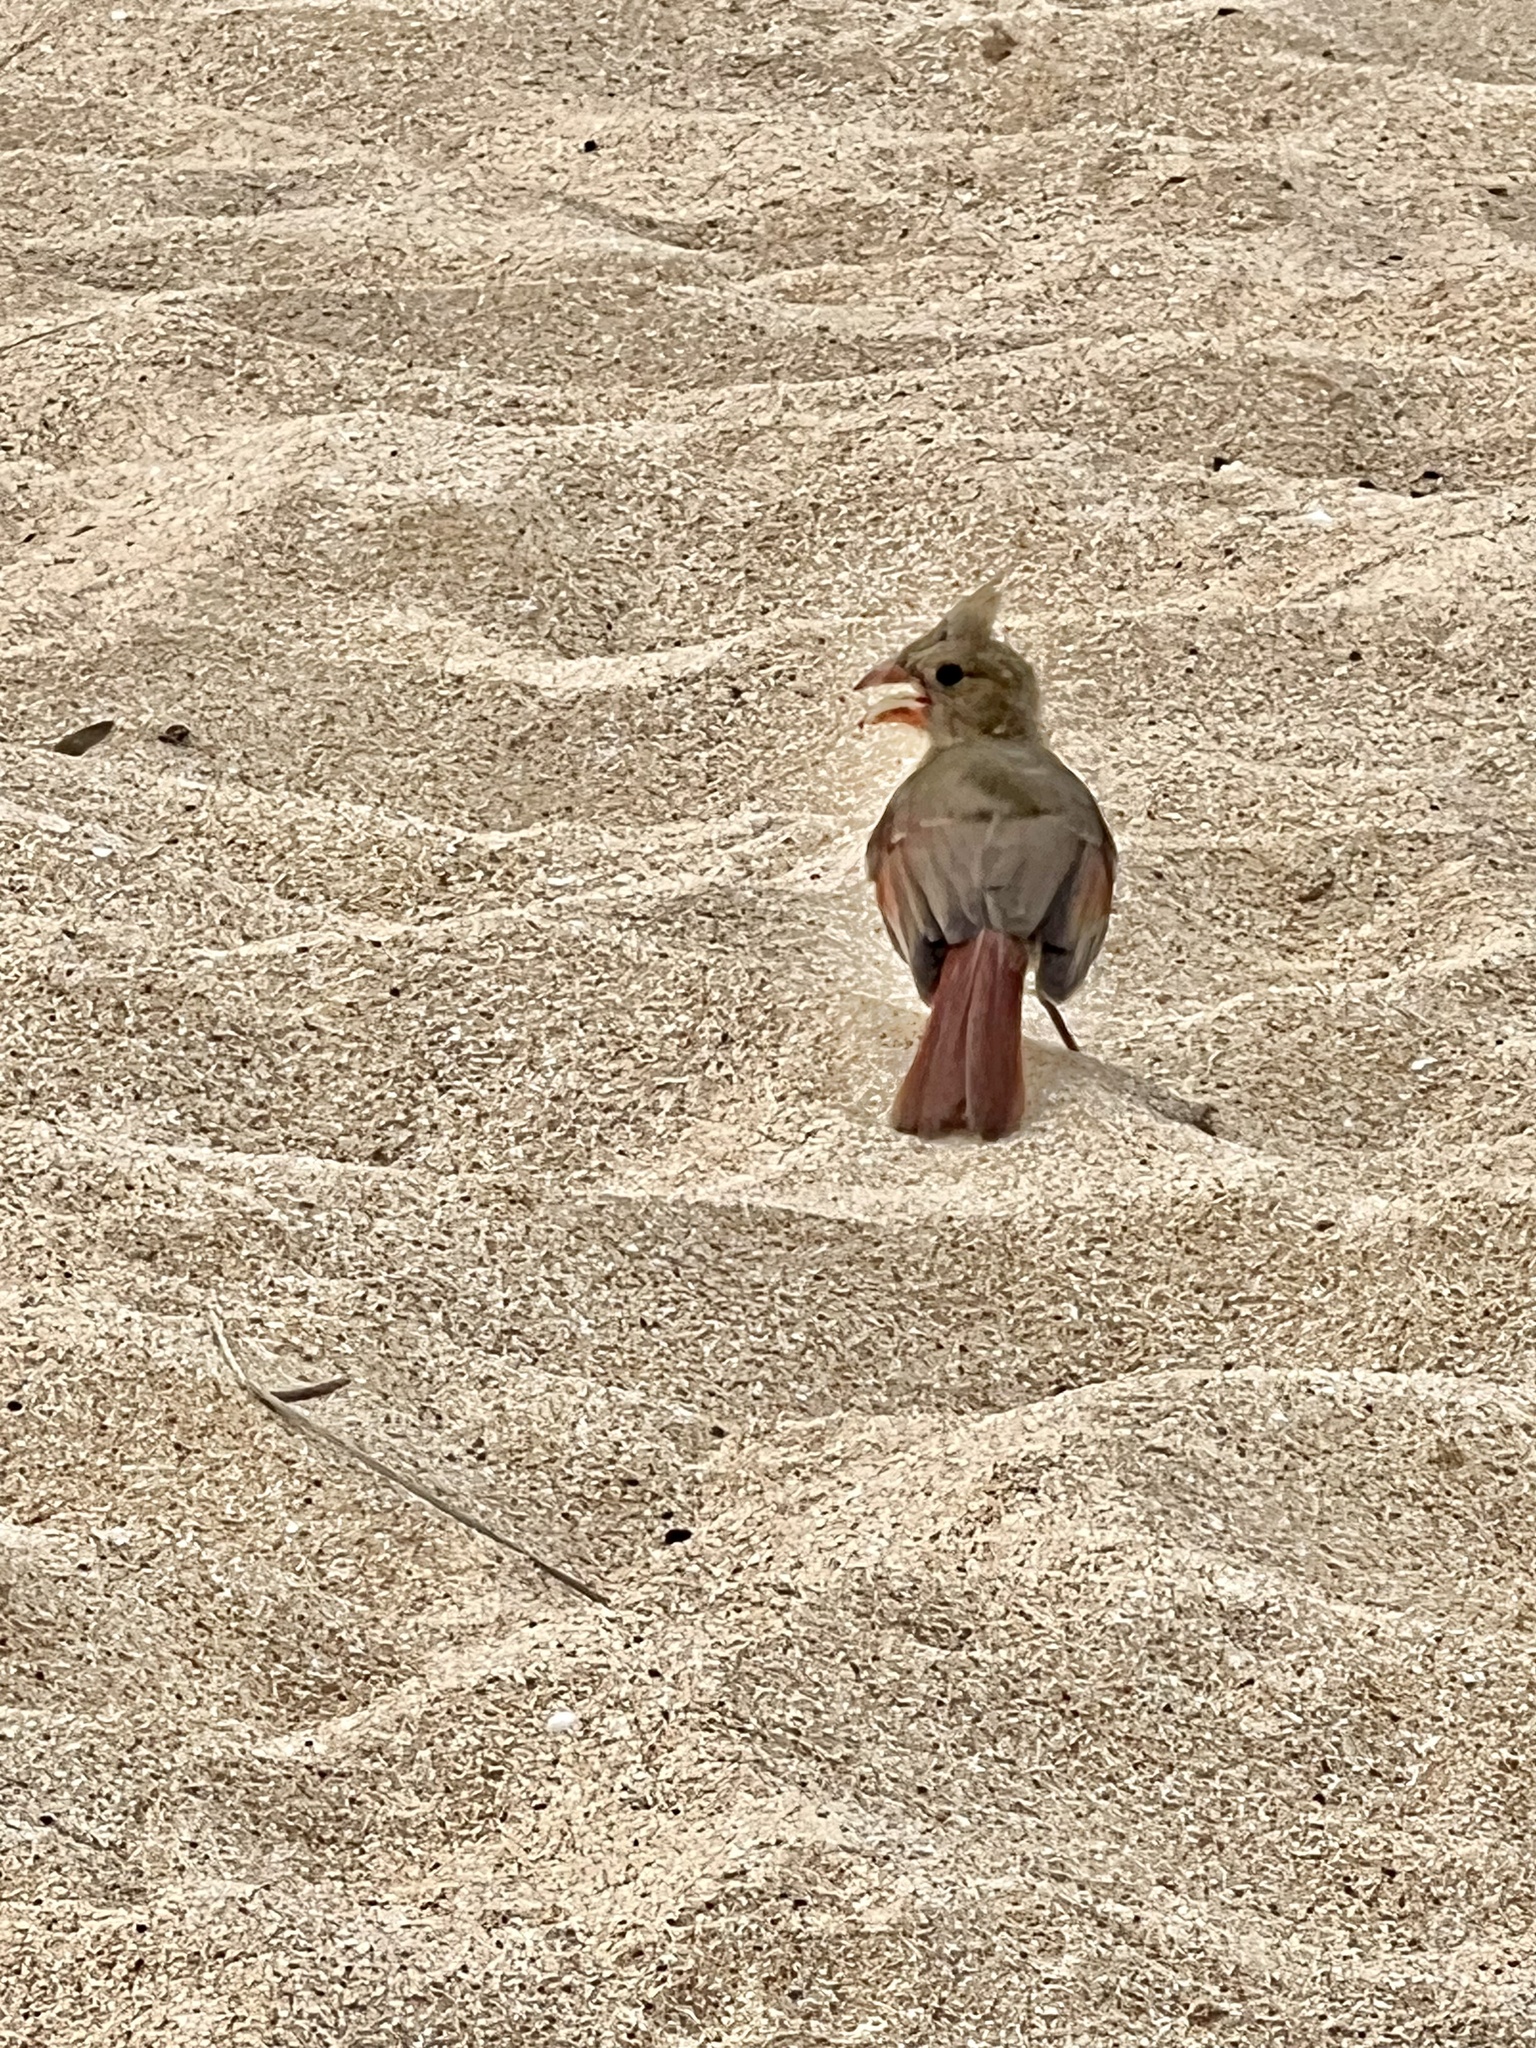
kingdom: Animalia
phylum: Chordata
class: Aves
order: Passeriformes
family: Cardinalidae
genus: Cardinalis
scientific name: Cardinalis cardinalis
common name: Northern cardinal
